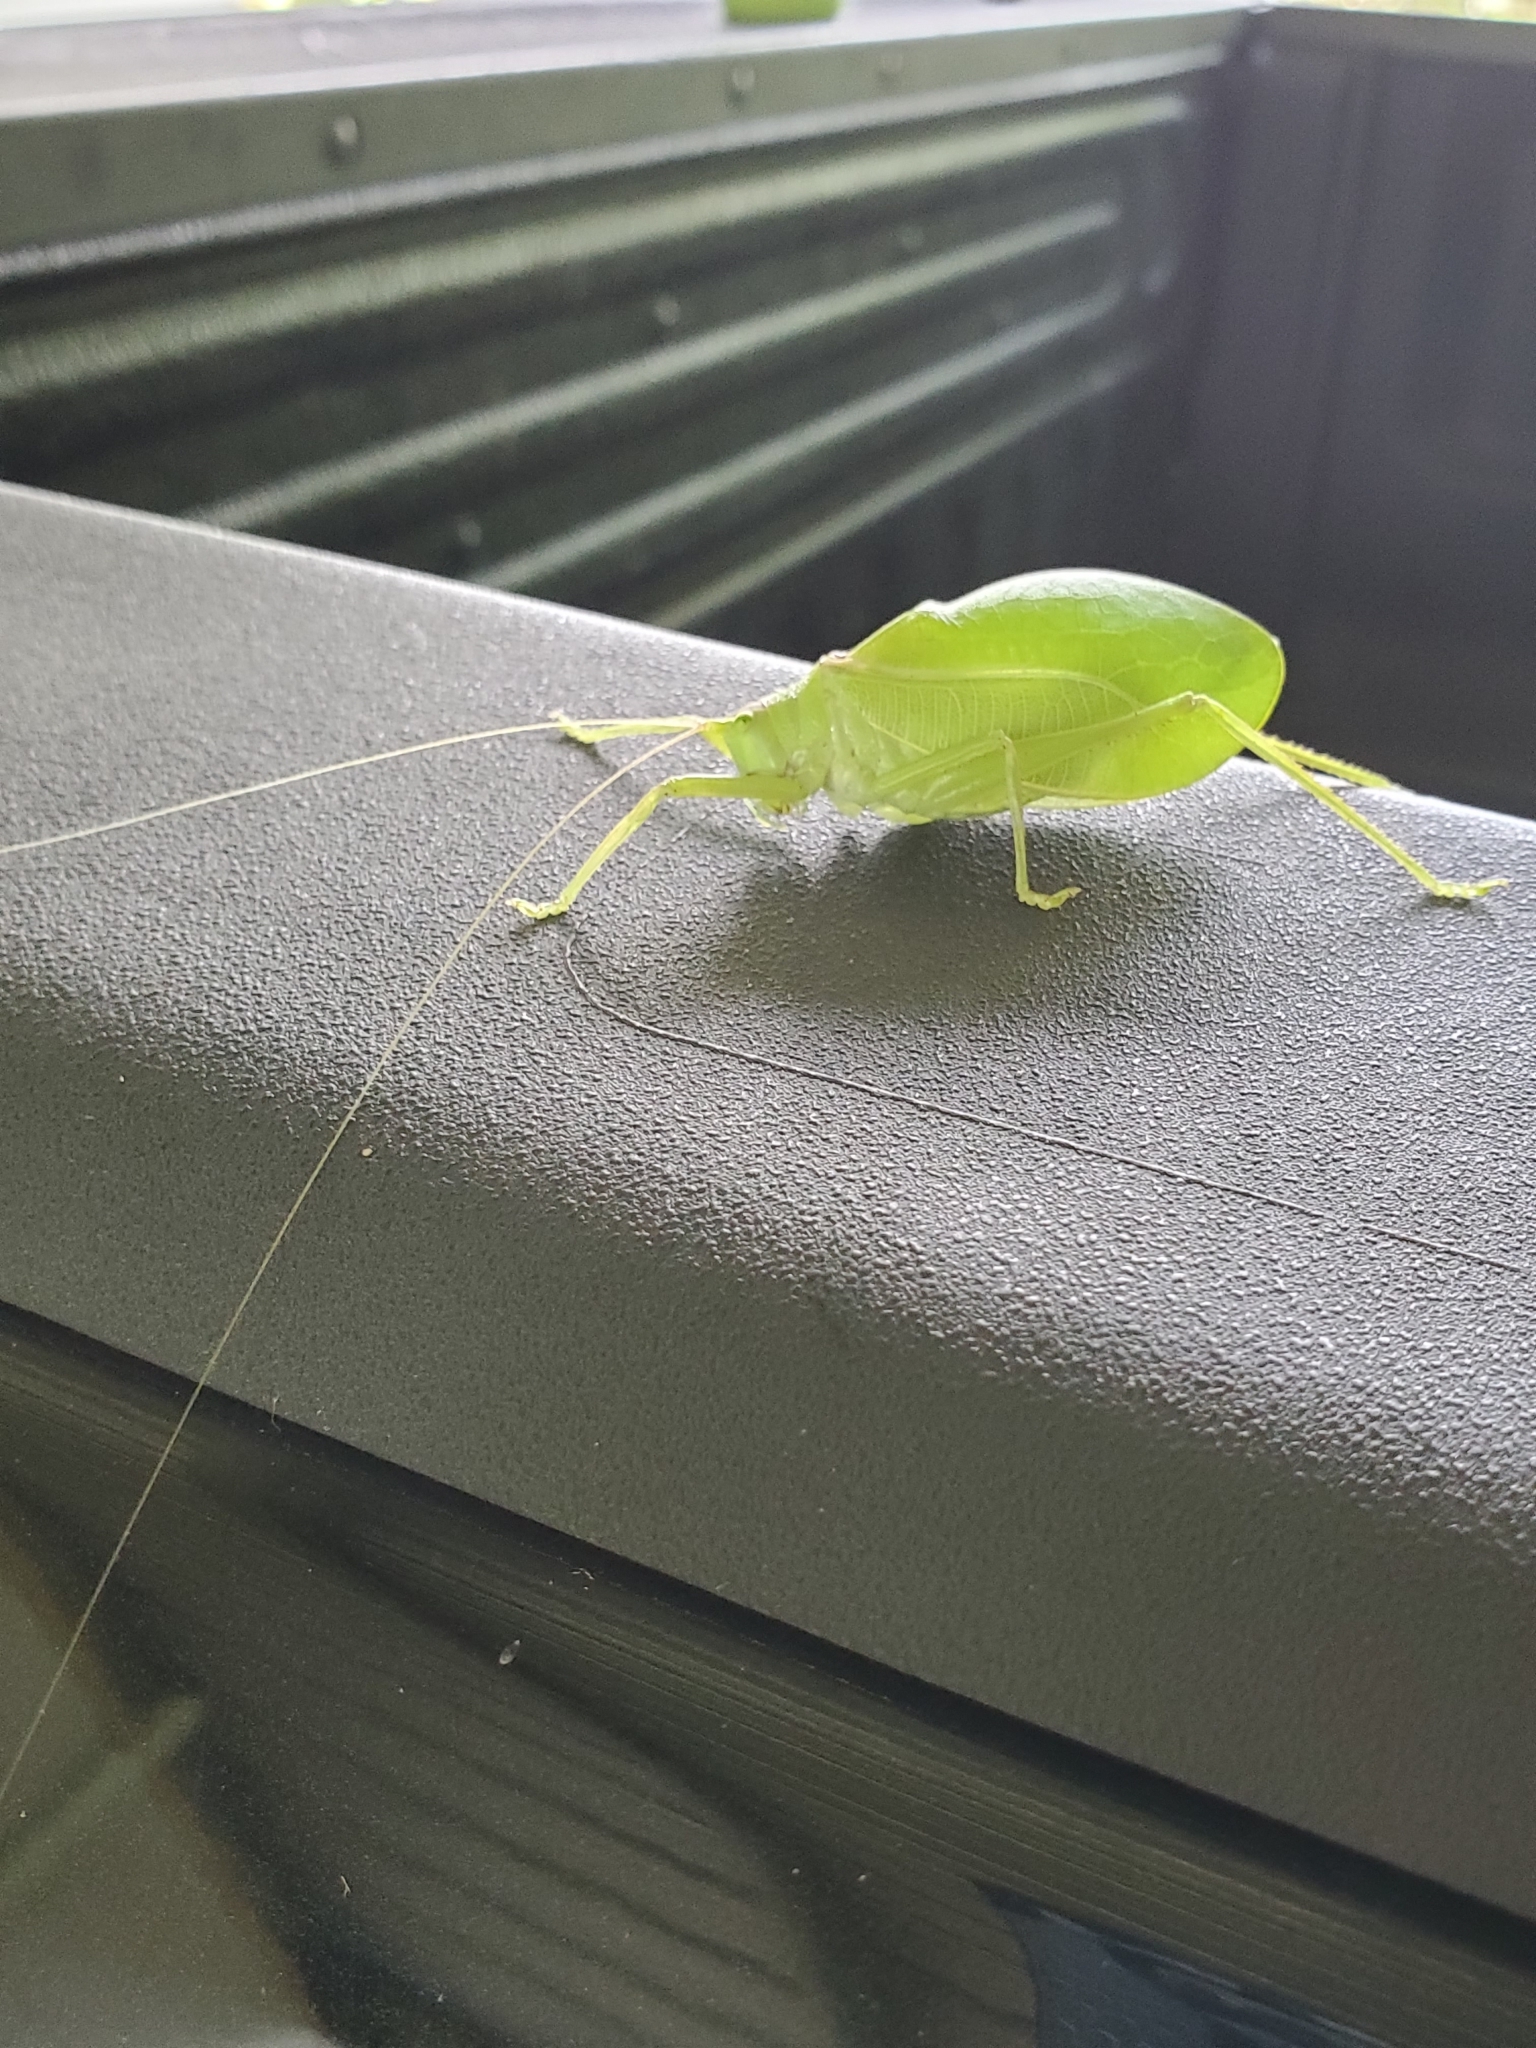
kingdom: Animalia
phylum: Arthropoda
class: Insecta
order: Orthoptera
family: Tettigoniidae
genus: Pterophylla
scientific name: Pterophylla camellifolia
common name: Common true katydid
